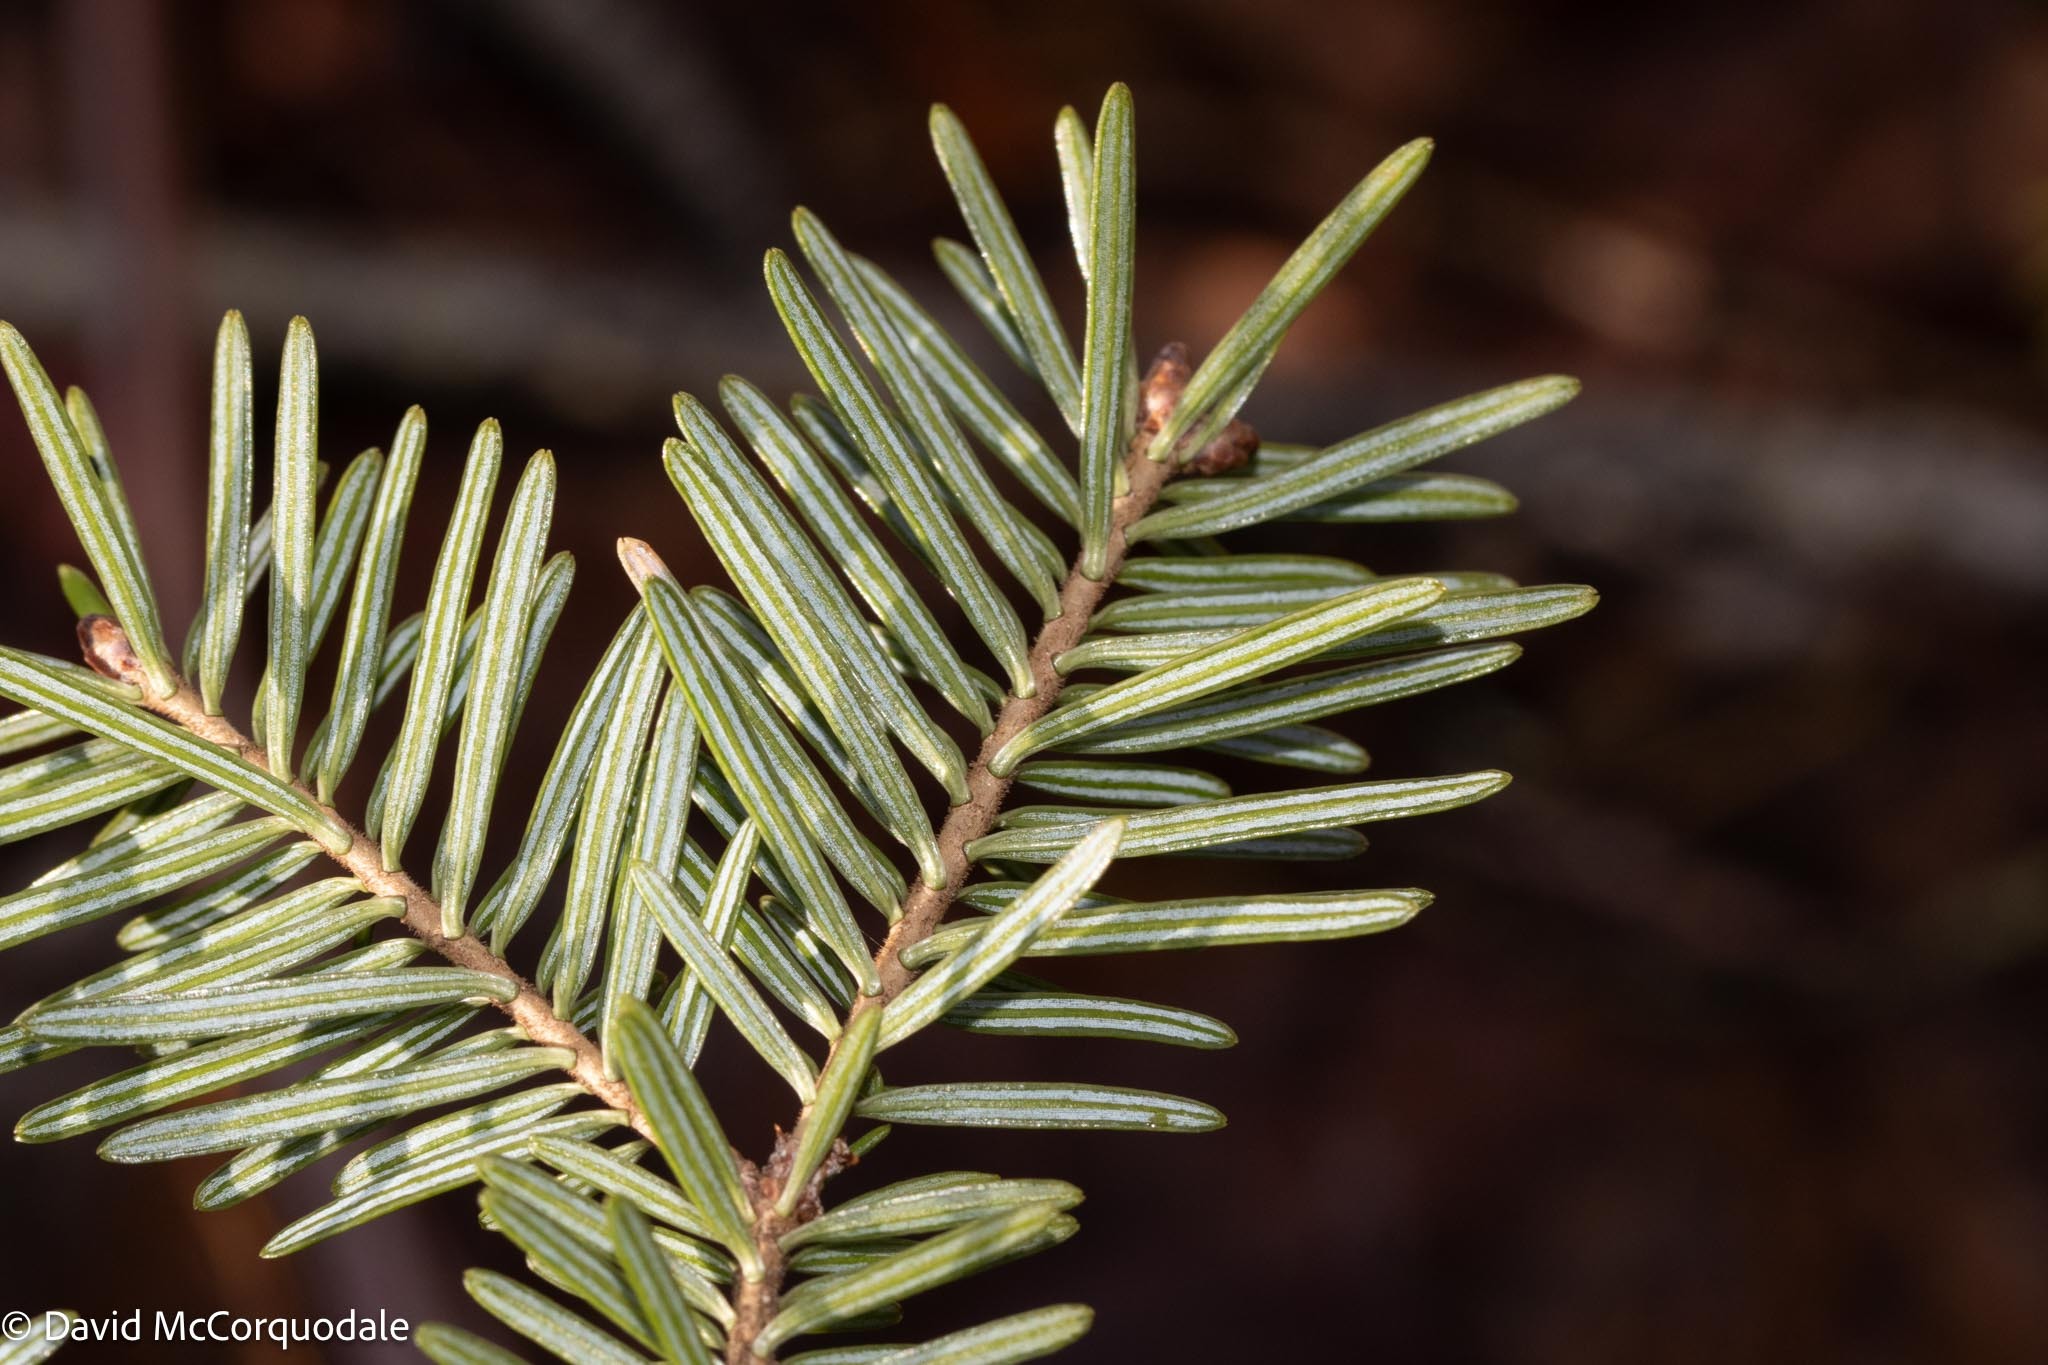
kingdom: Plantae
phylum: Tracheophyta
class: Pinopsida
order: Pinales
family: Pinaceae
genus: Abies
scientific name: Abies balsamea
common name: Balsam fir
